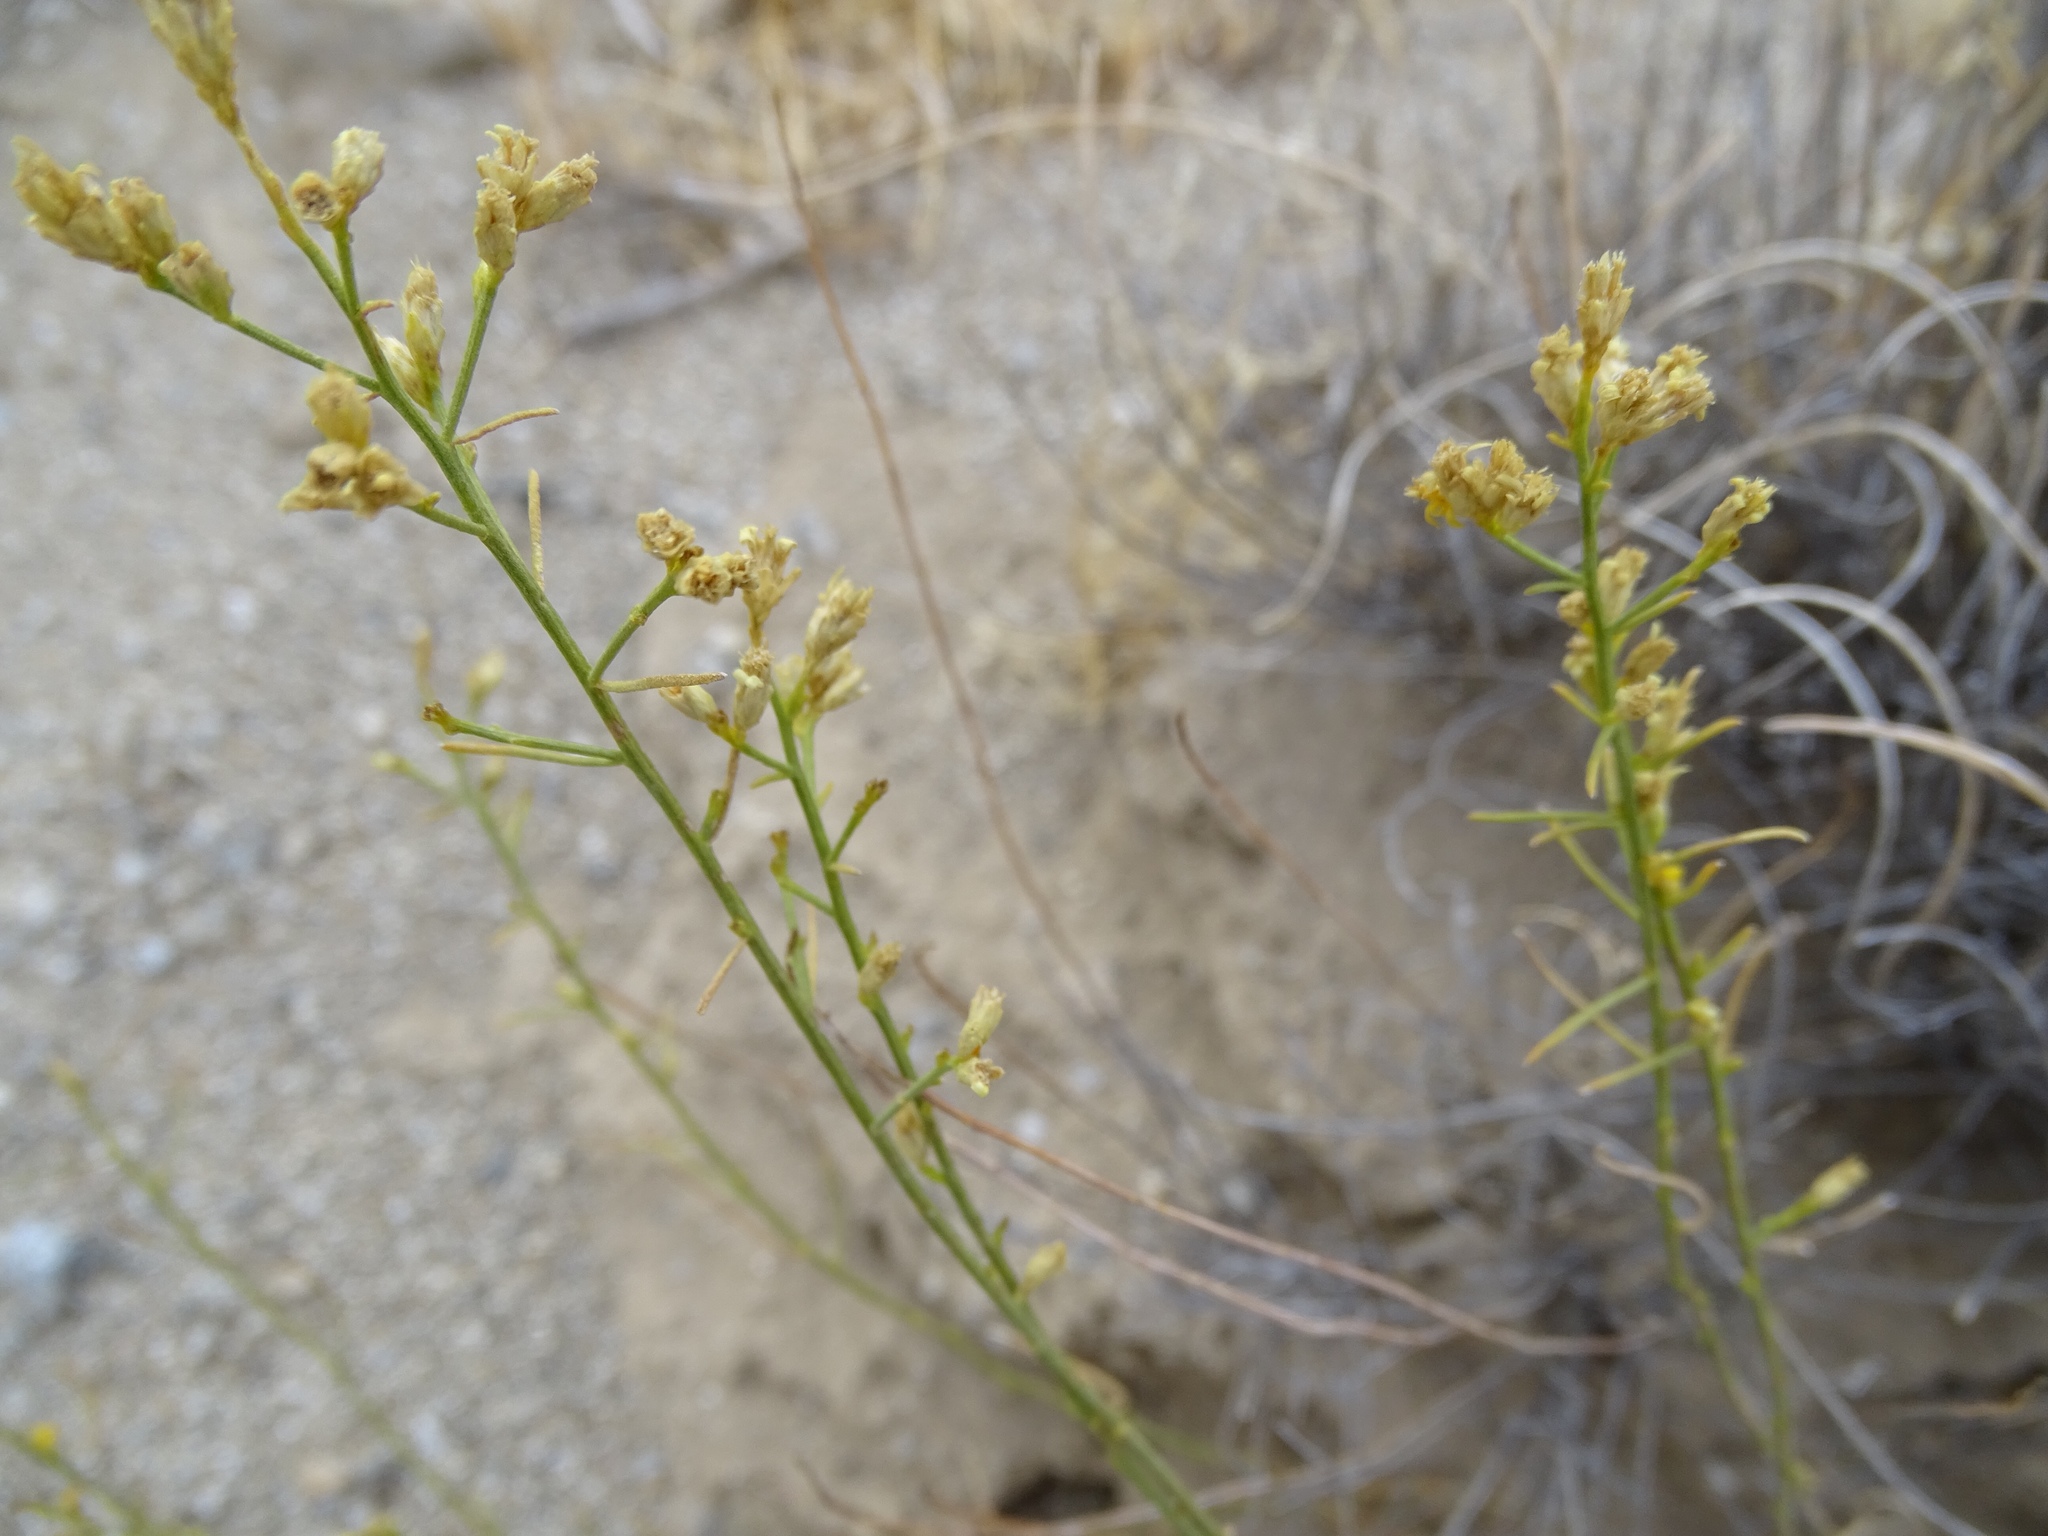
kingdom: Plantae
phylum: Tracheophyta
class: Magnoliopsida
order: Asterales
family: Asteraceae
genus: Gutierrezia
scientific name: Gutierrezia sarothrae
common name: Broom snakeweed
